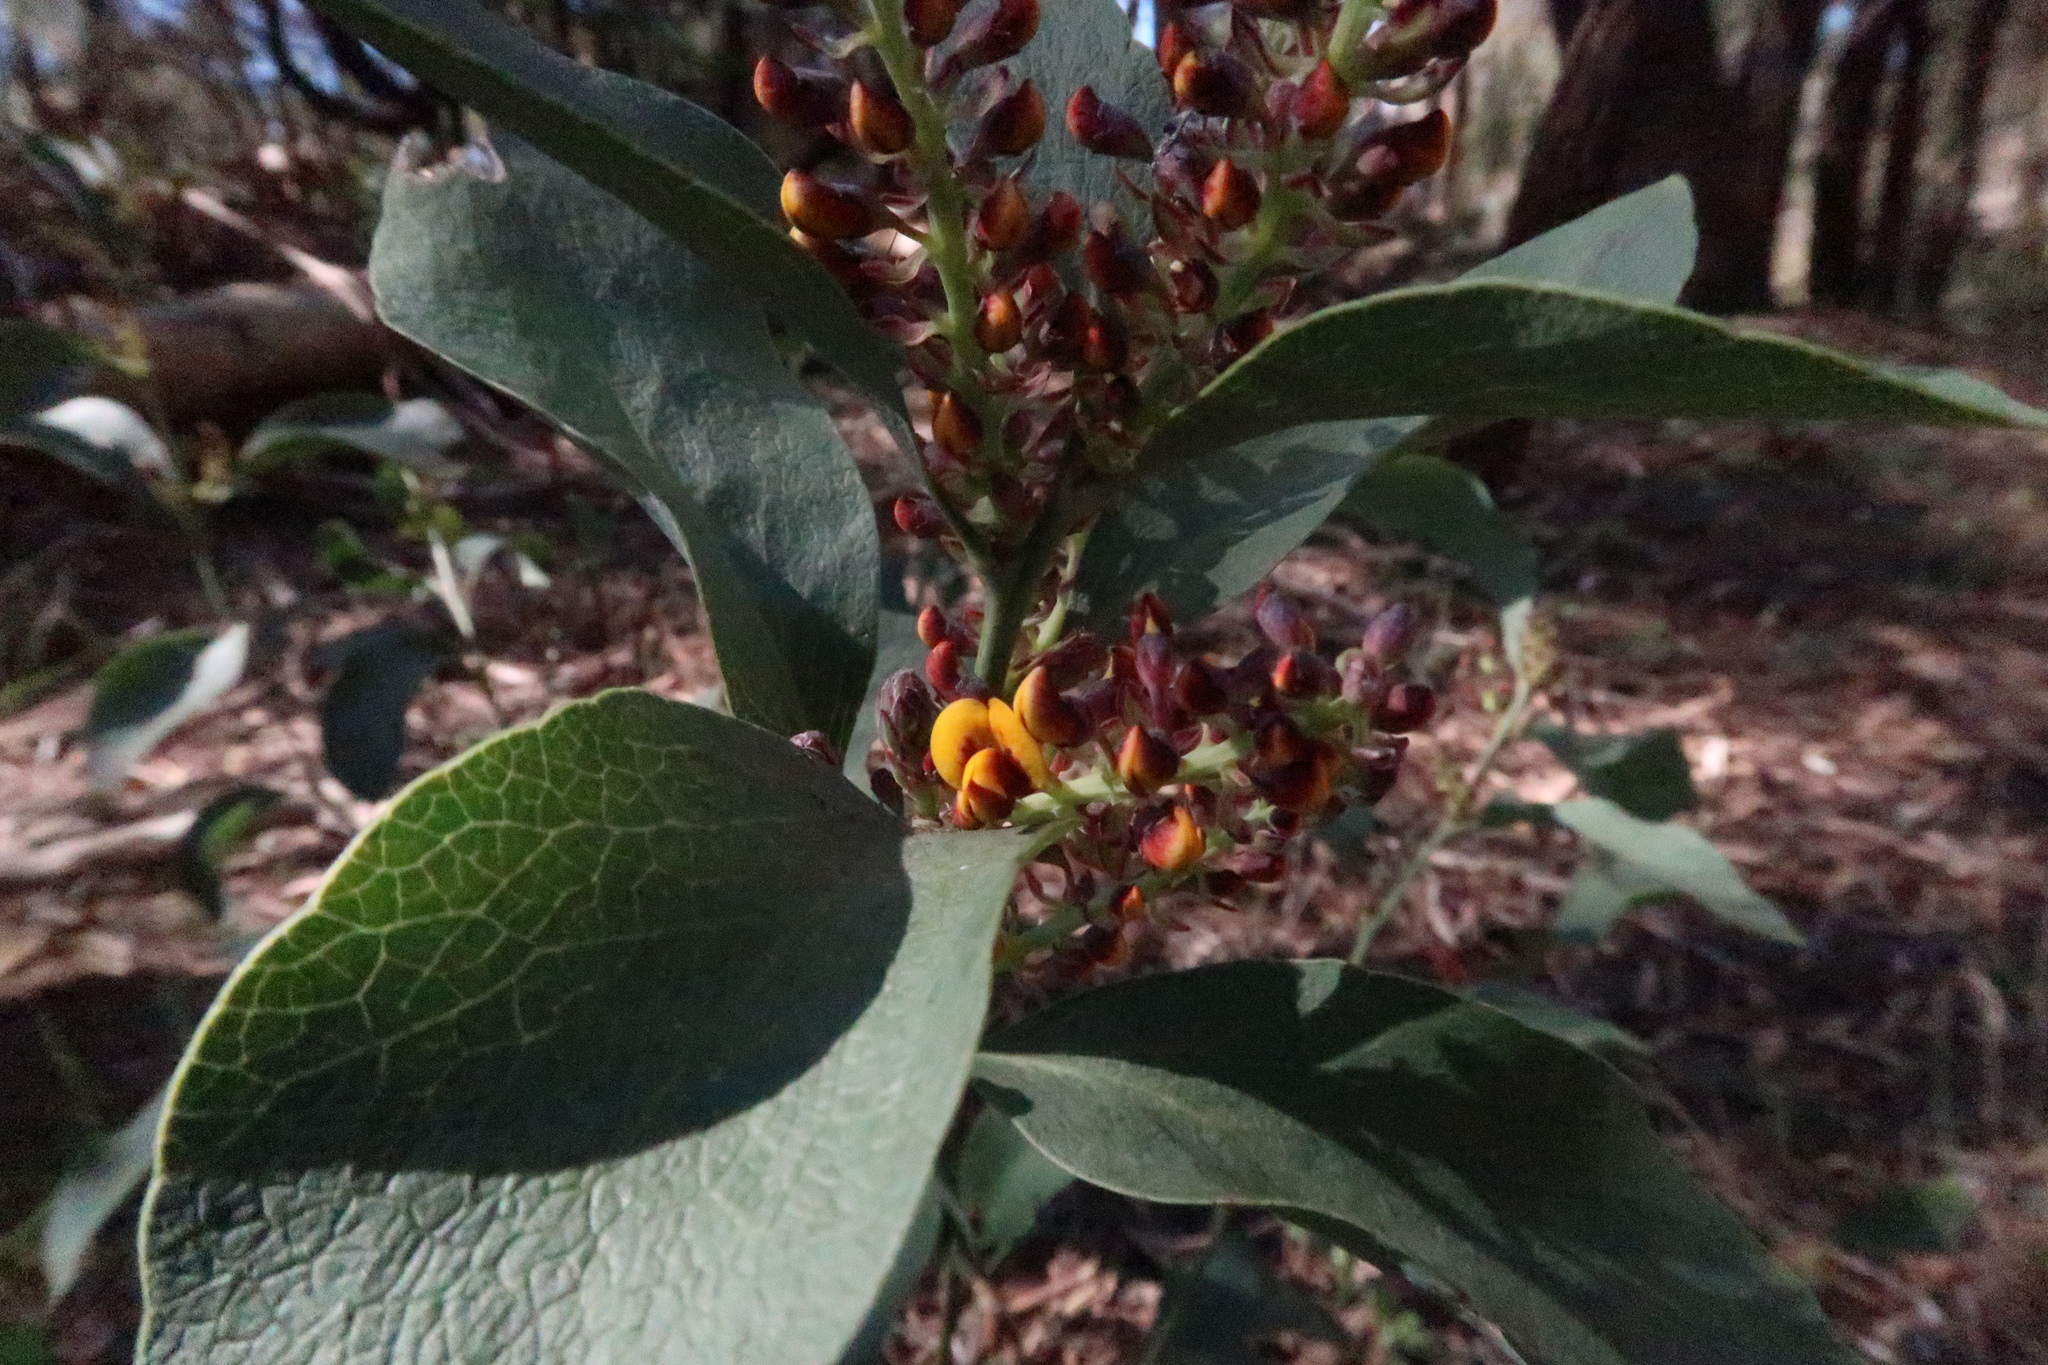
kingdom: Plantae
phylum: Tracheophyta
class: Magnoliopsida
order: Fabales
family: Fabaceae
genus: Daviesia
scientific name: Daviesia latifolia
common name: Hop bitter-pea
